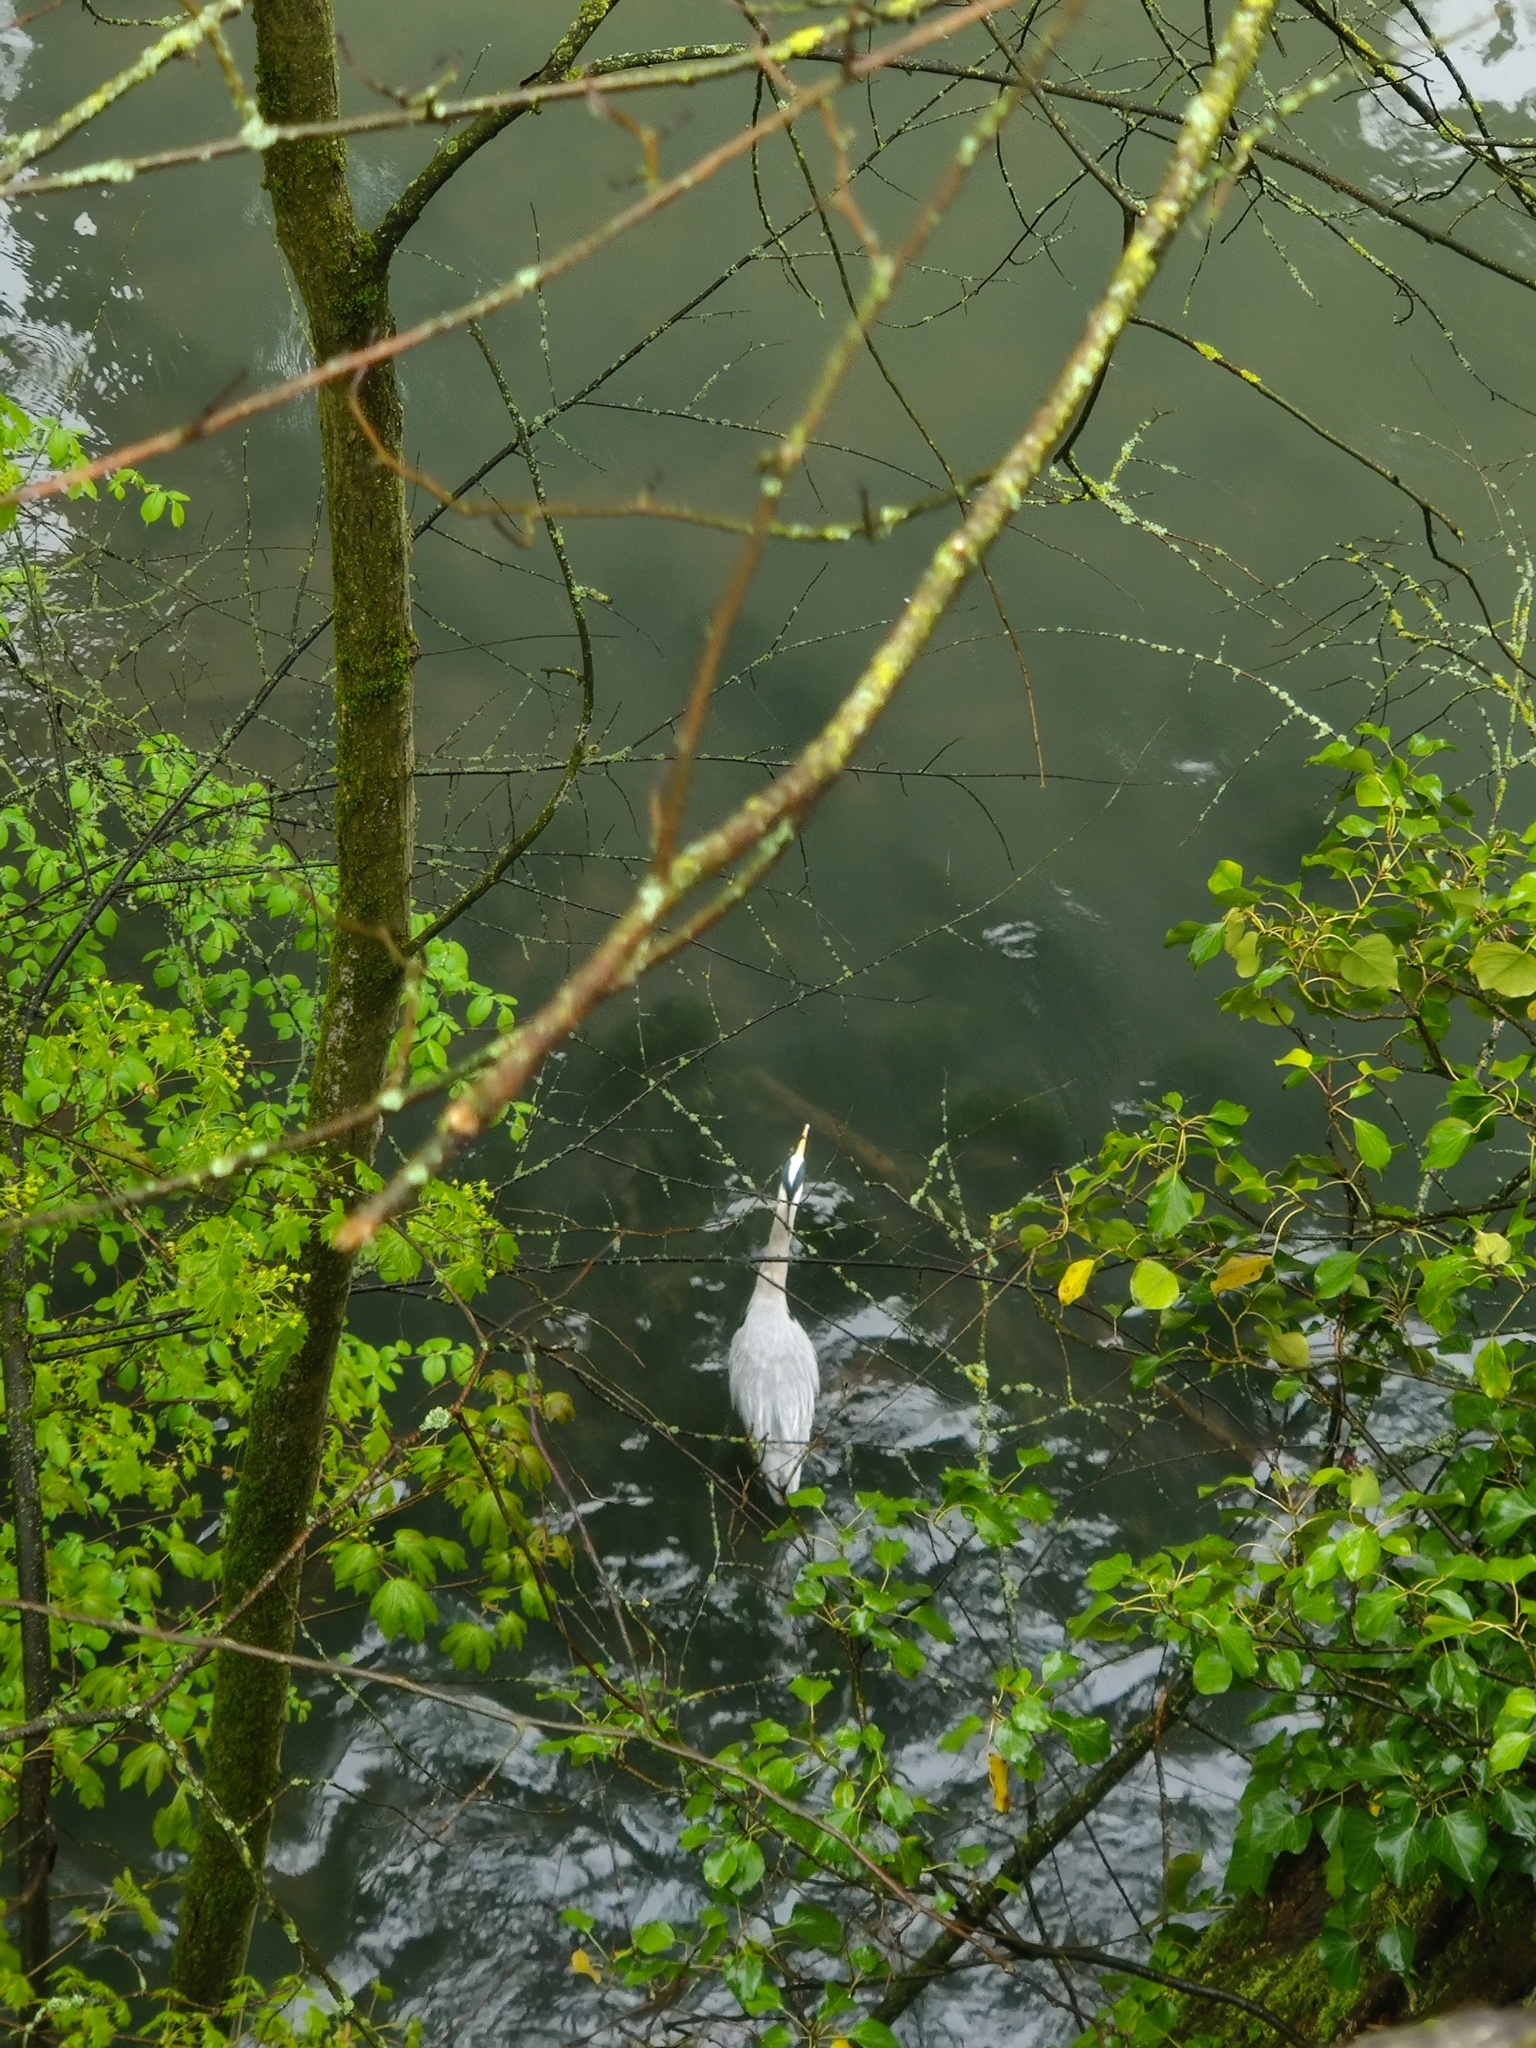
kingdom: Animalia
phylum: Chordata
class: Aves
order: Pelecaniformes
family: Ardeidae
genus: Ardea
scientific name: Ardea cinerea
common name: Grey heron
